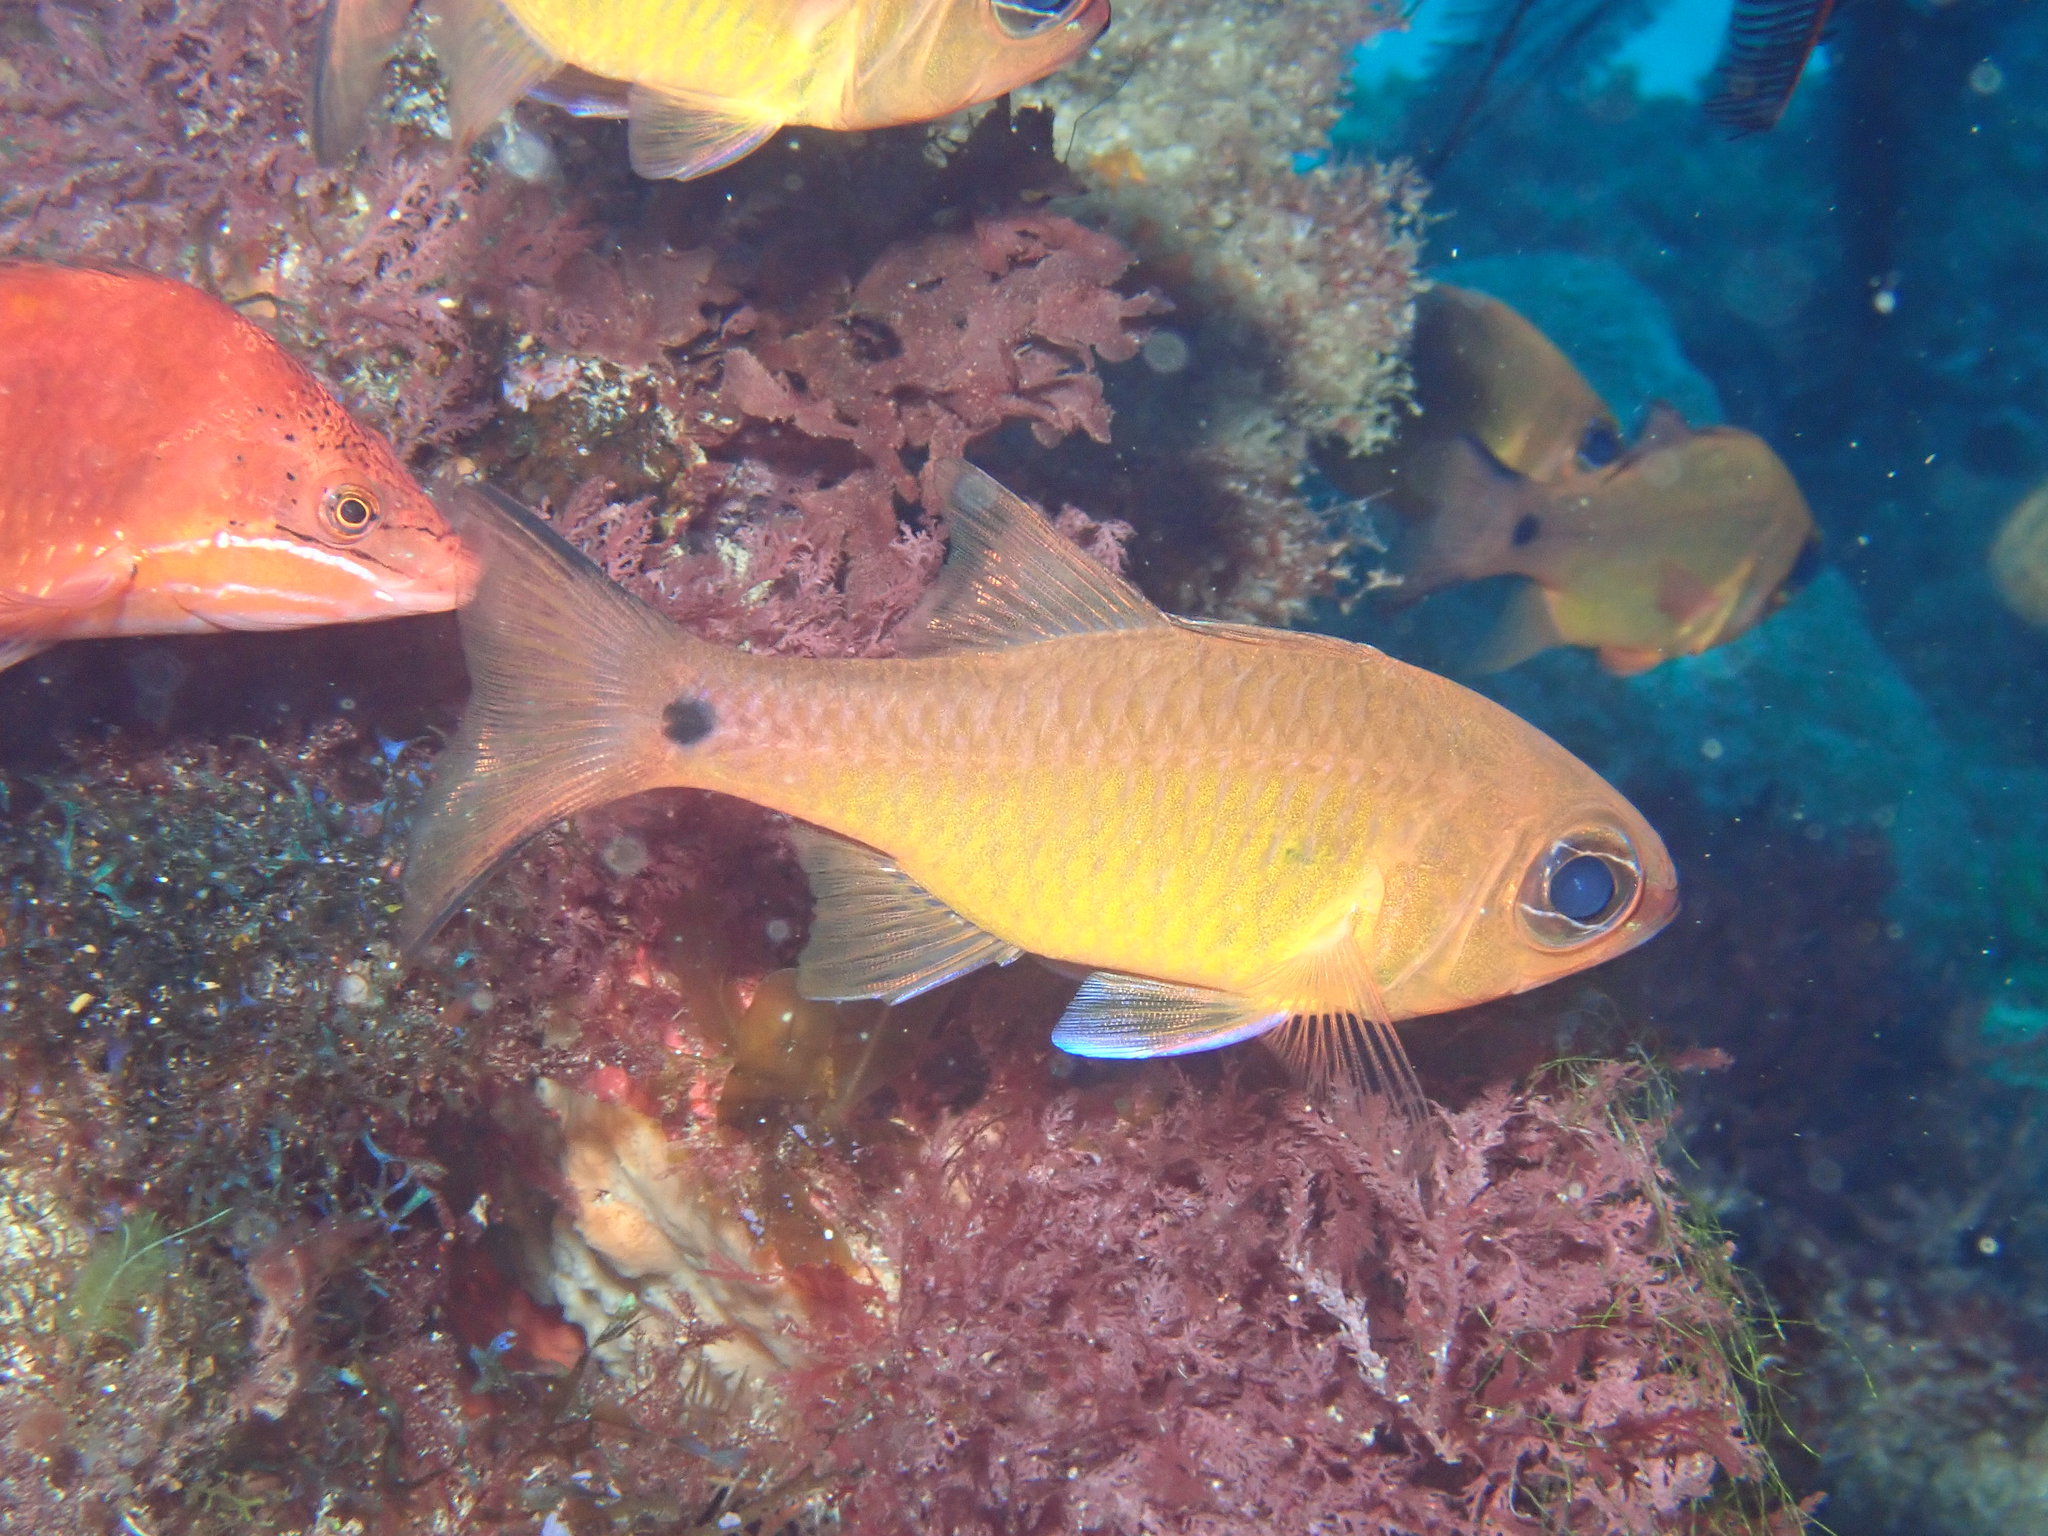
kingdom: Animalia
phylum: Chordata
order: Perciformes
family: Apogonidae
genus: Ostorhinchus
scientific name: Ostorhinchus flavus
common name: Brassy cardinalfish
